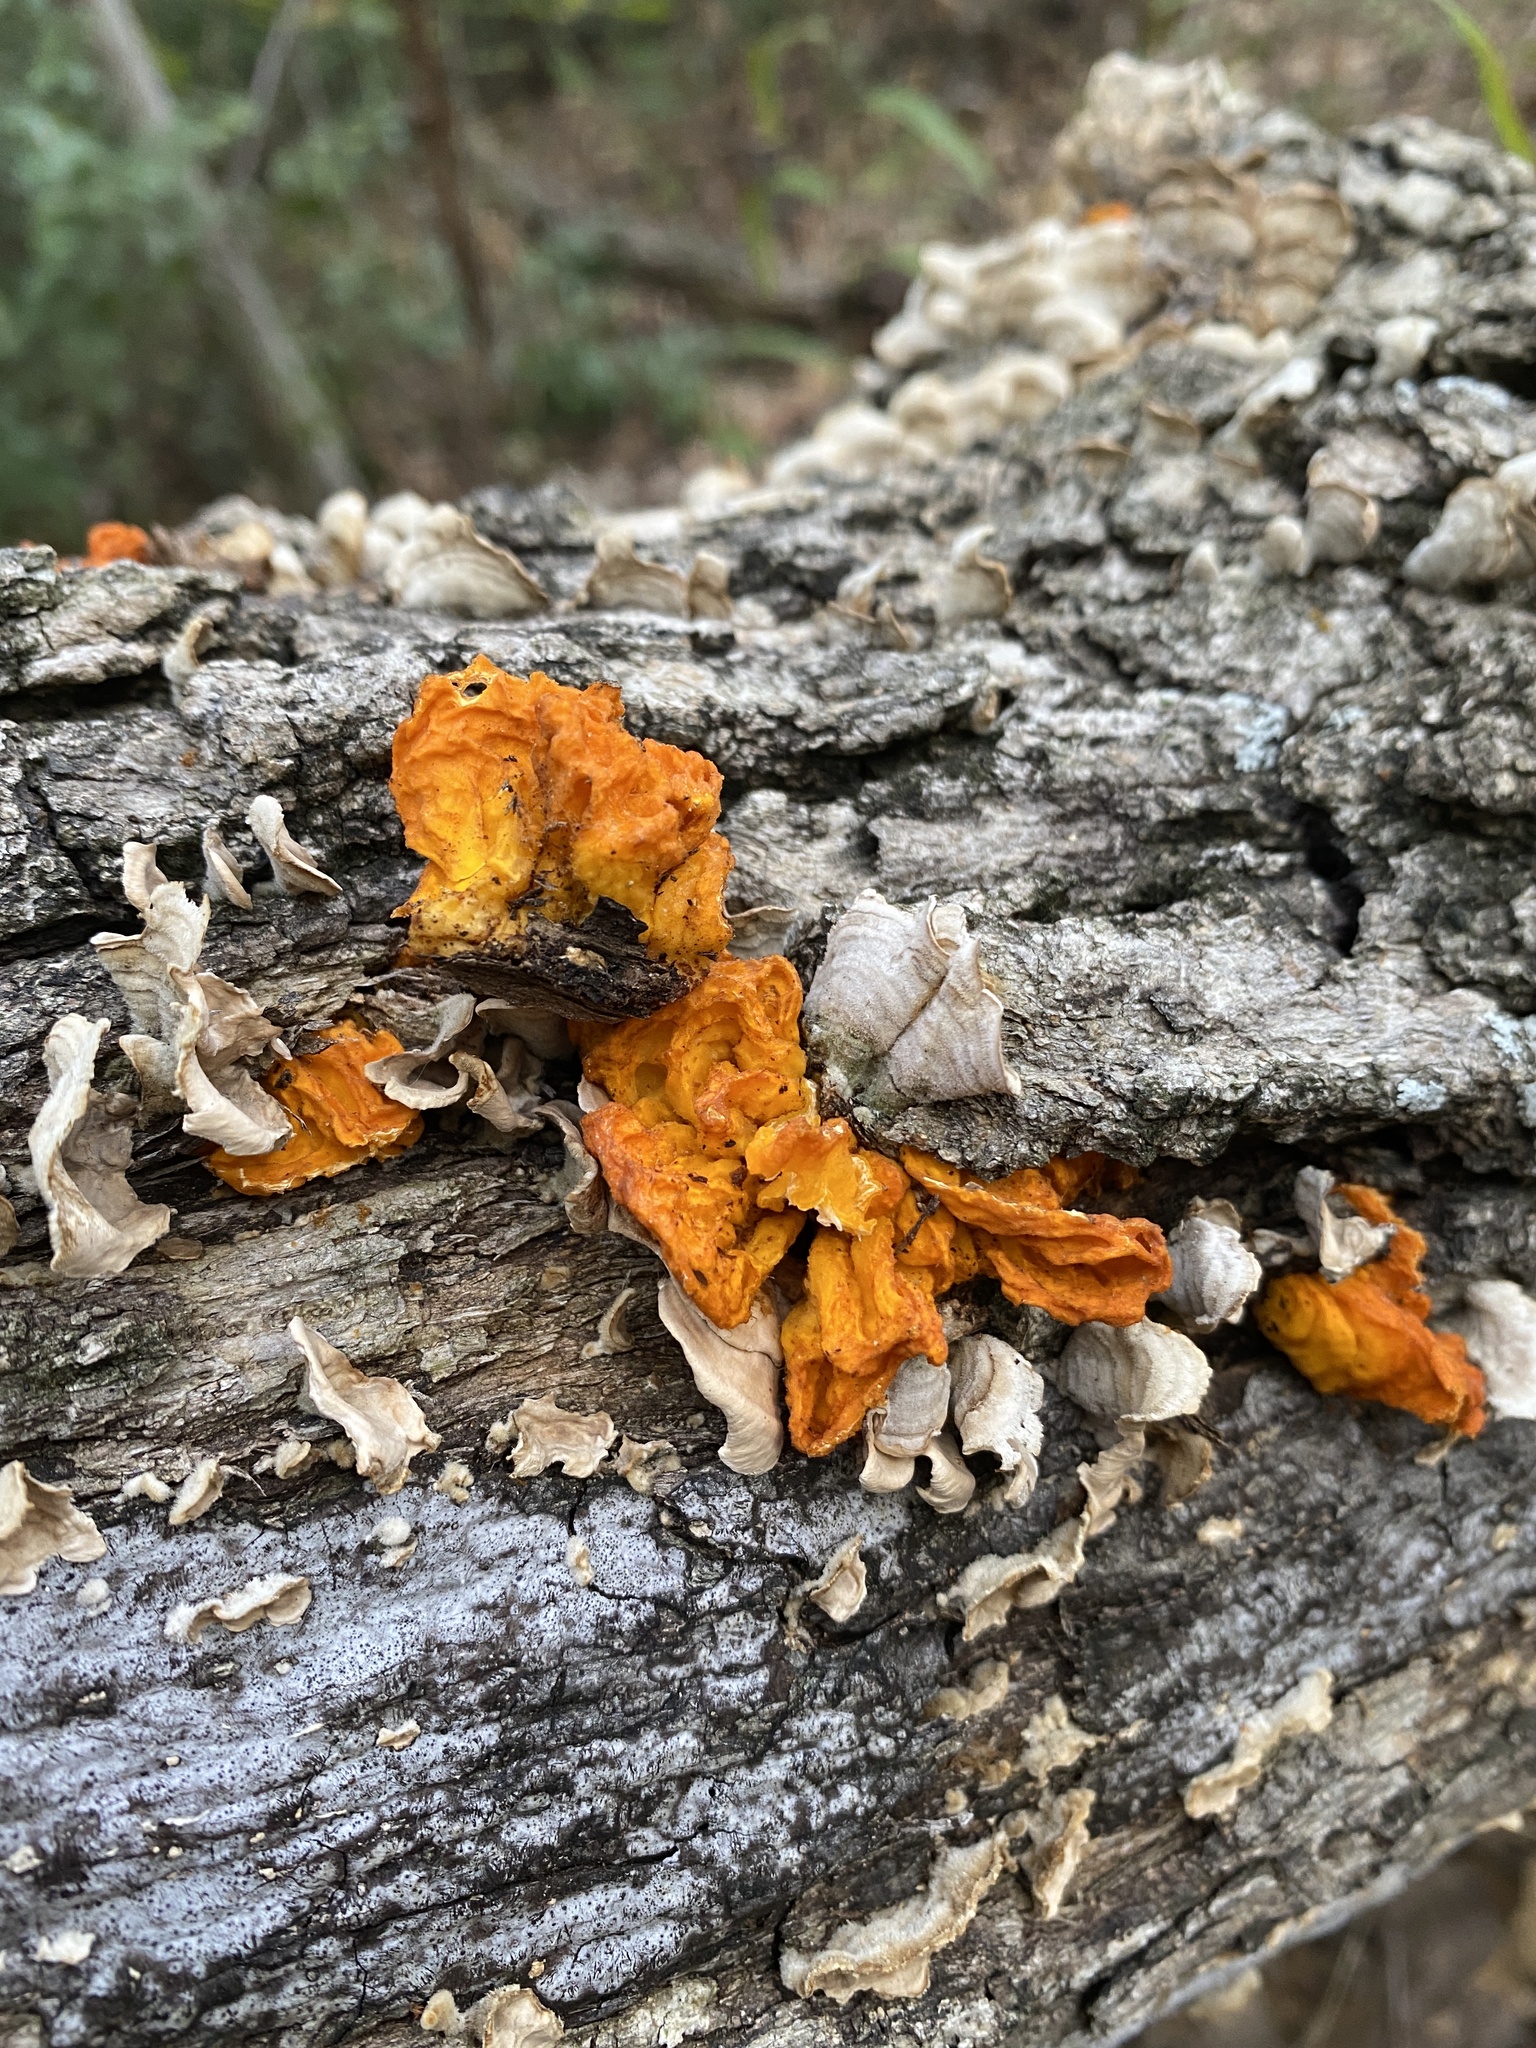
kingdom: Fungi
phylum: Basidiomycota
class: Tremellomycetes
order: Tremellales
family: Naemateliaceae
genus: Naematelia
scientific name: Naematelia aurantia
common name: Golden ear
